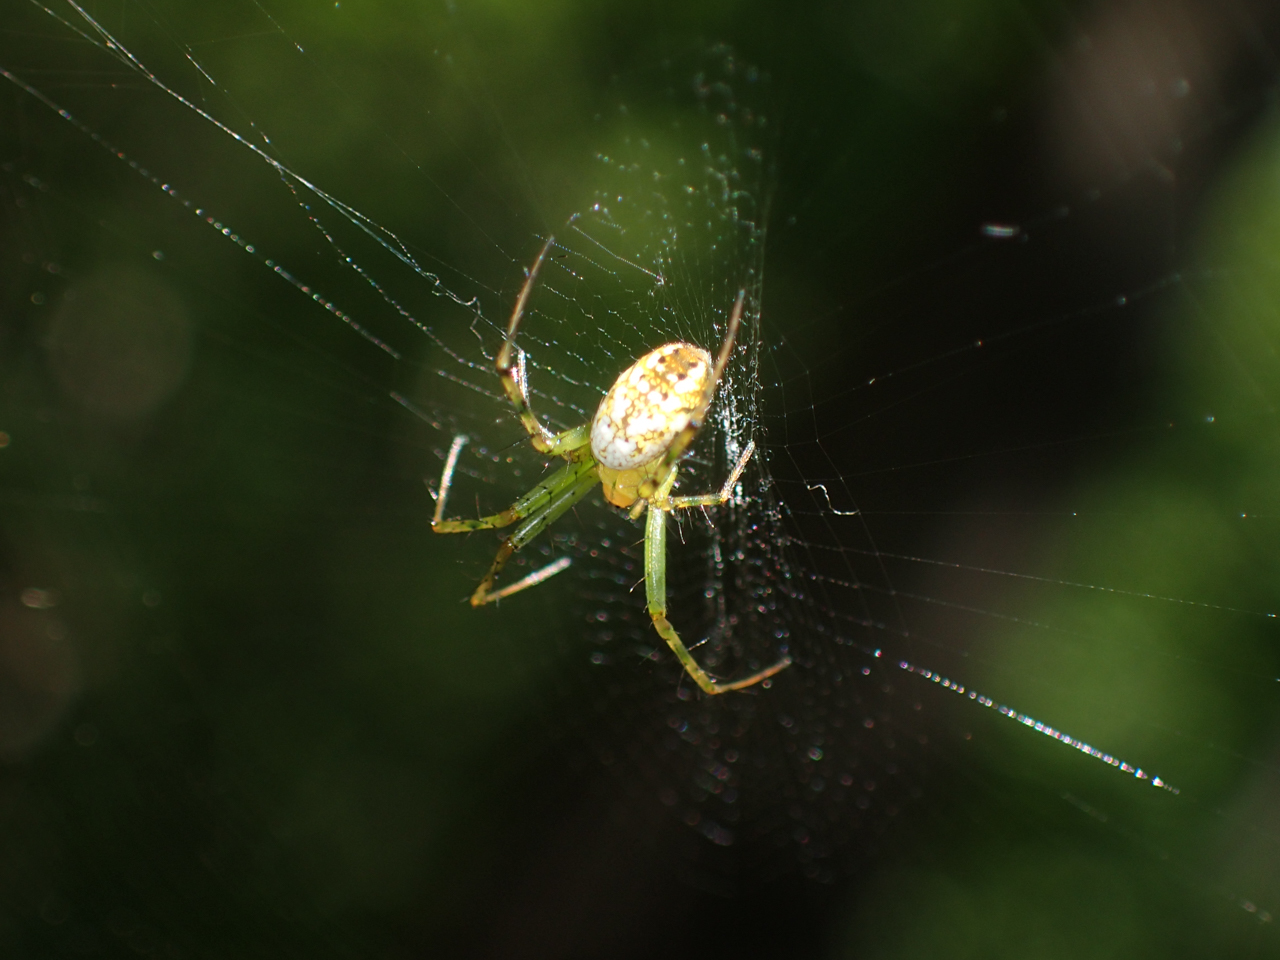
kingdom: Animalia
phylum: Arthropoda
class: Arachnida
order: Araneae
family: Araneidae
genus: Mangora
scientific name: Mangora spiculata
